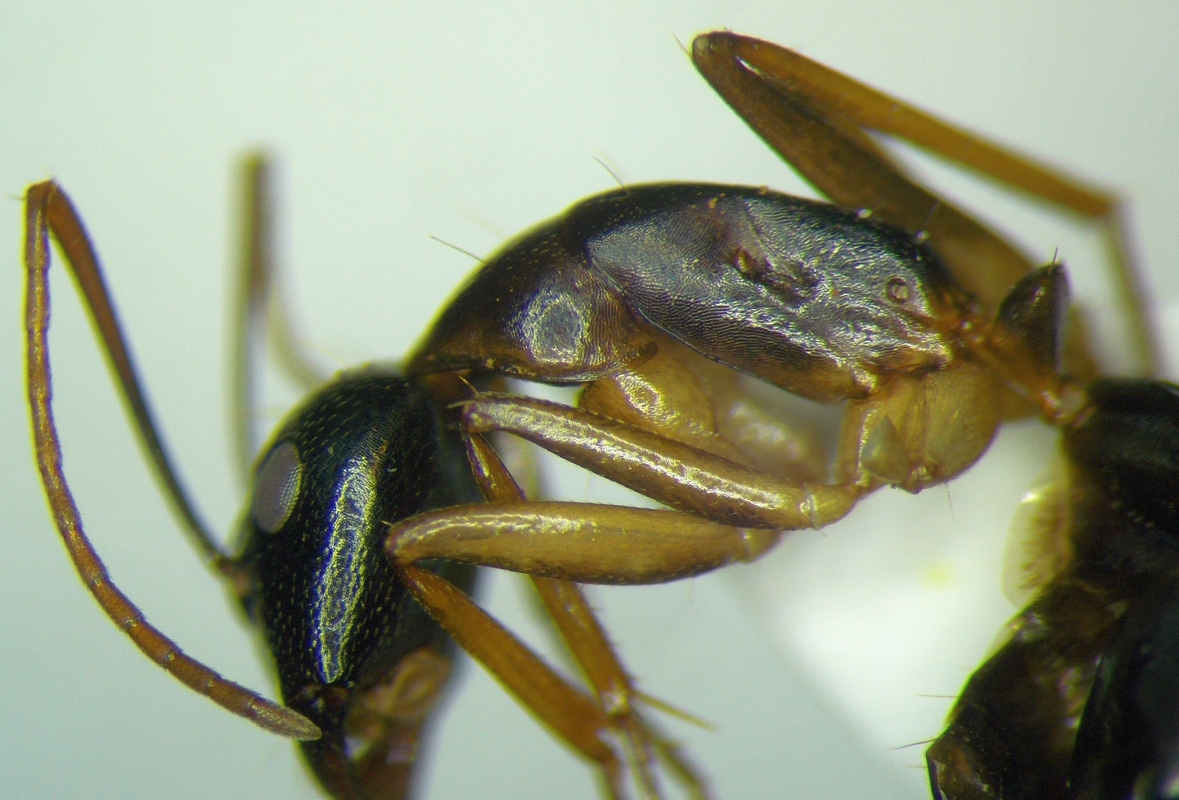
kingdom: Animalia
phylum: Arthropoda
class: Insecta
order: Hymenoptera
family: Formicidae
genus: Camponotus
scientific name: Camponotus baldaccii
